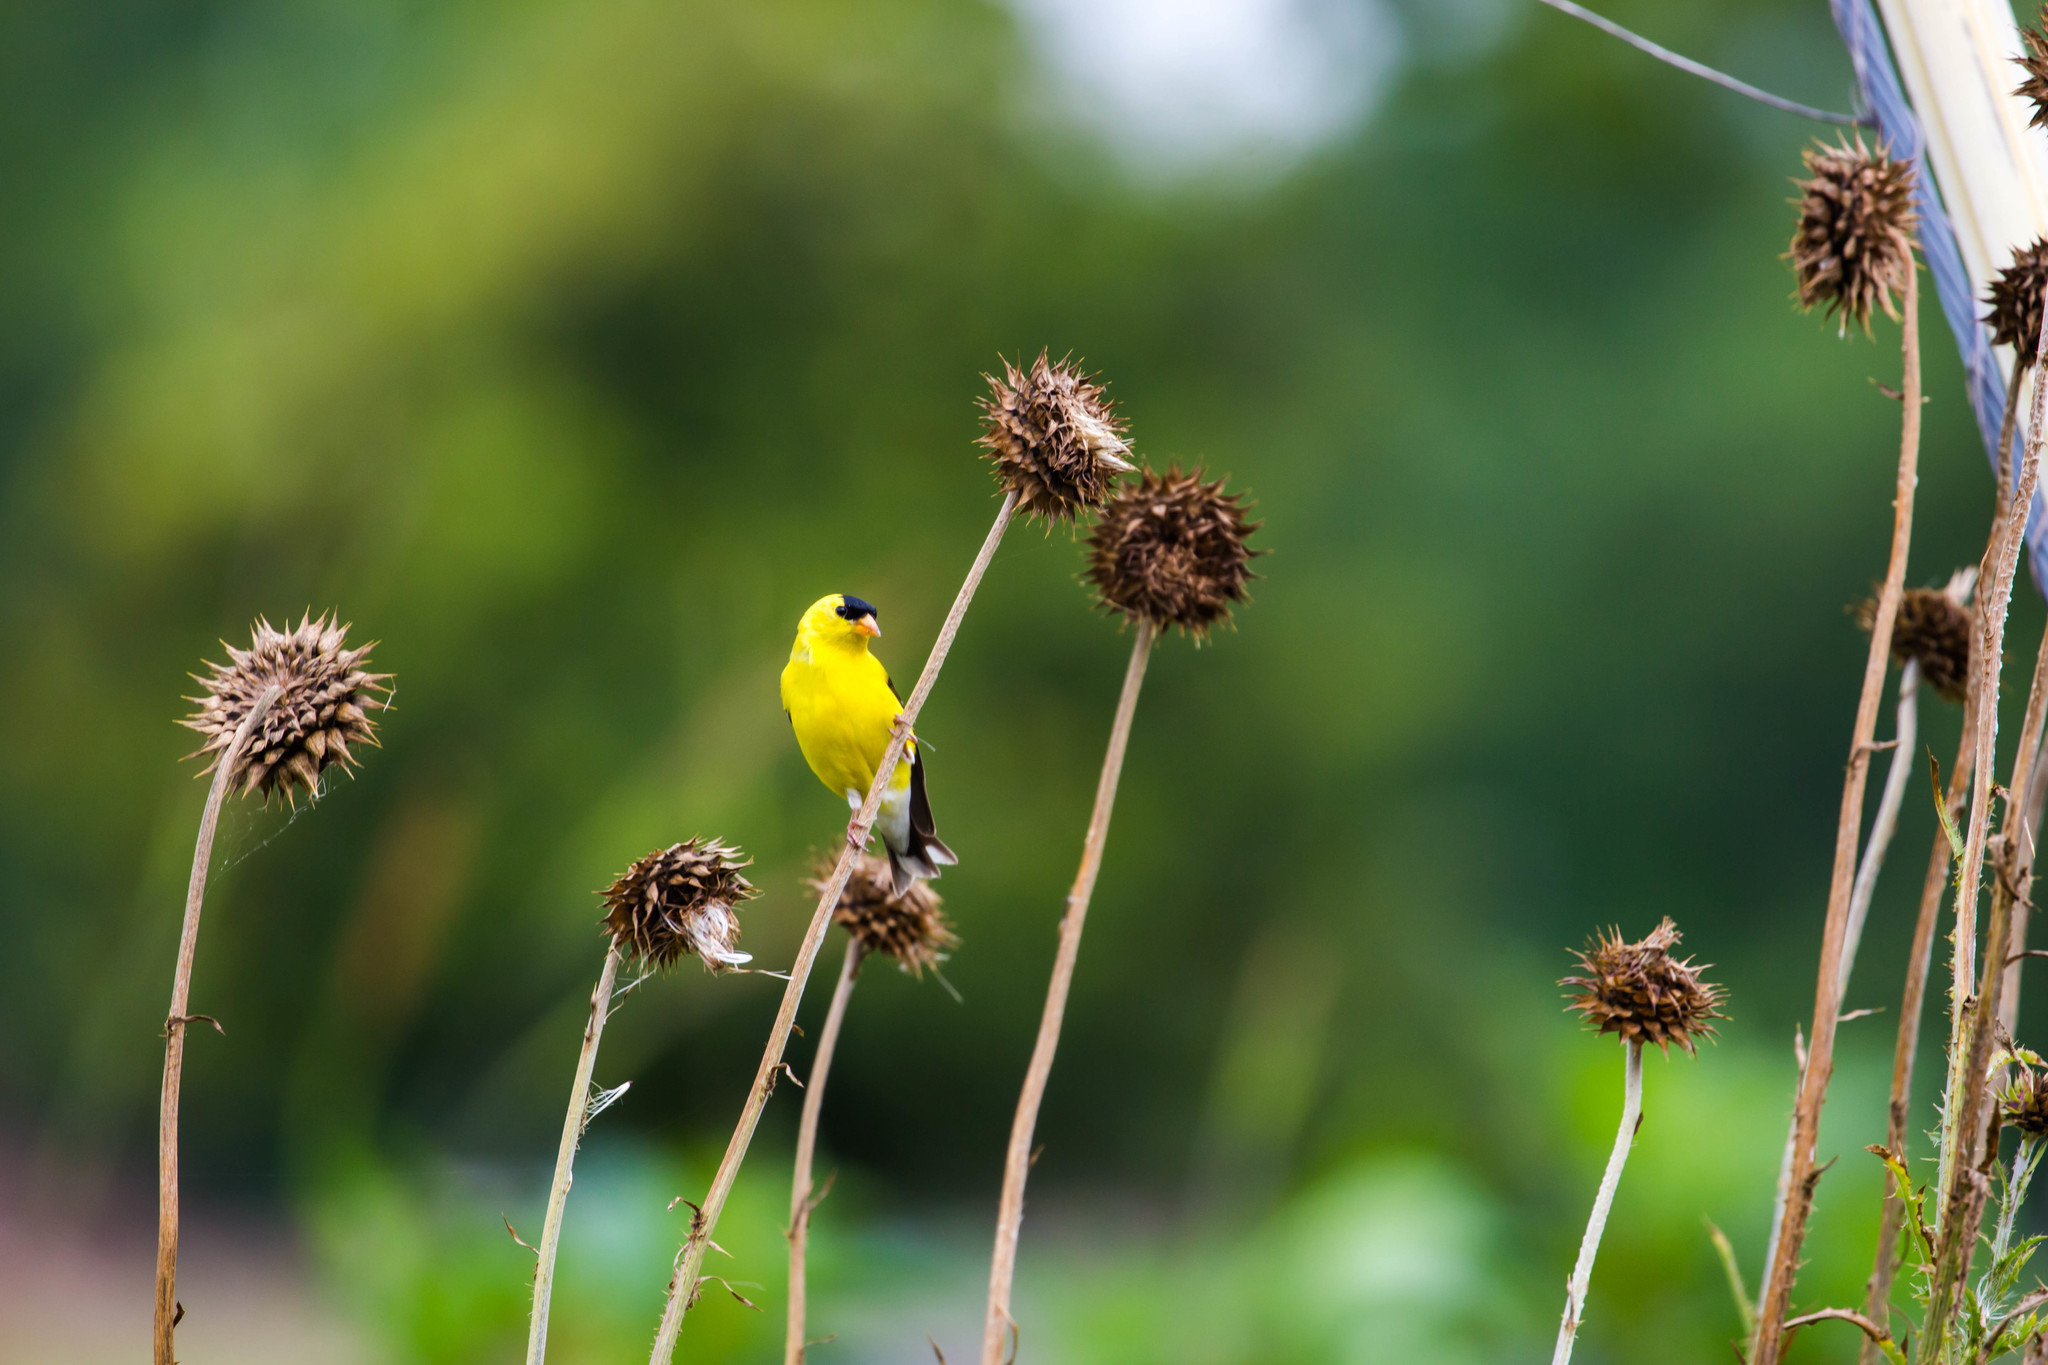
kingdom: Animalia
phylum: Chordata
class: Aves
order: Passeriformes
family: Fringillidae
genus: Spinus
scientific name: Spinus tristis
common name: American goldfinch
